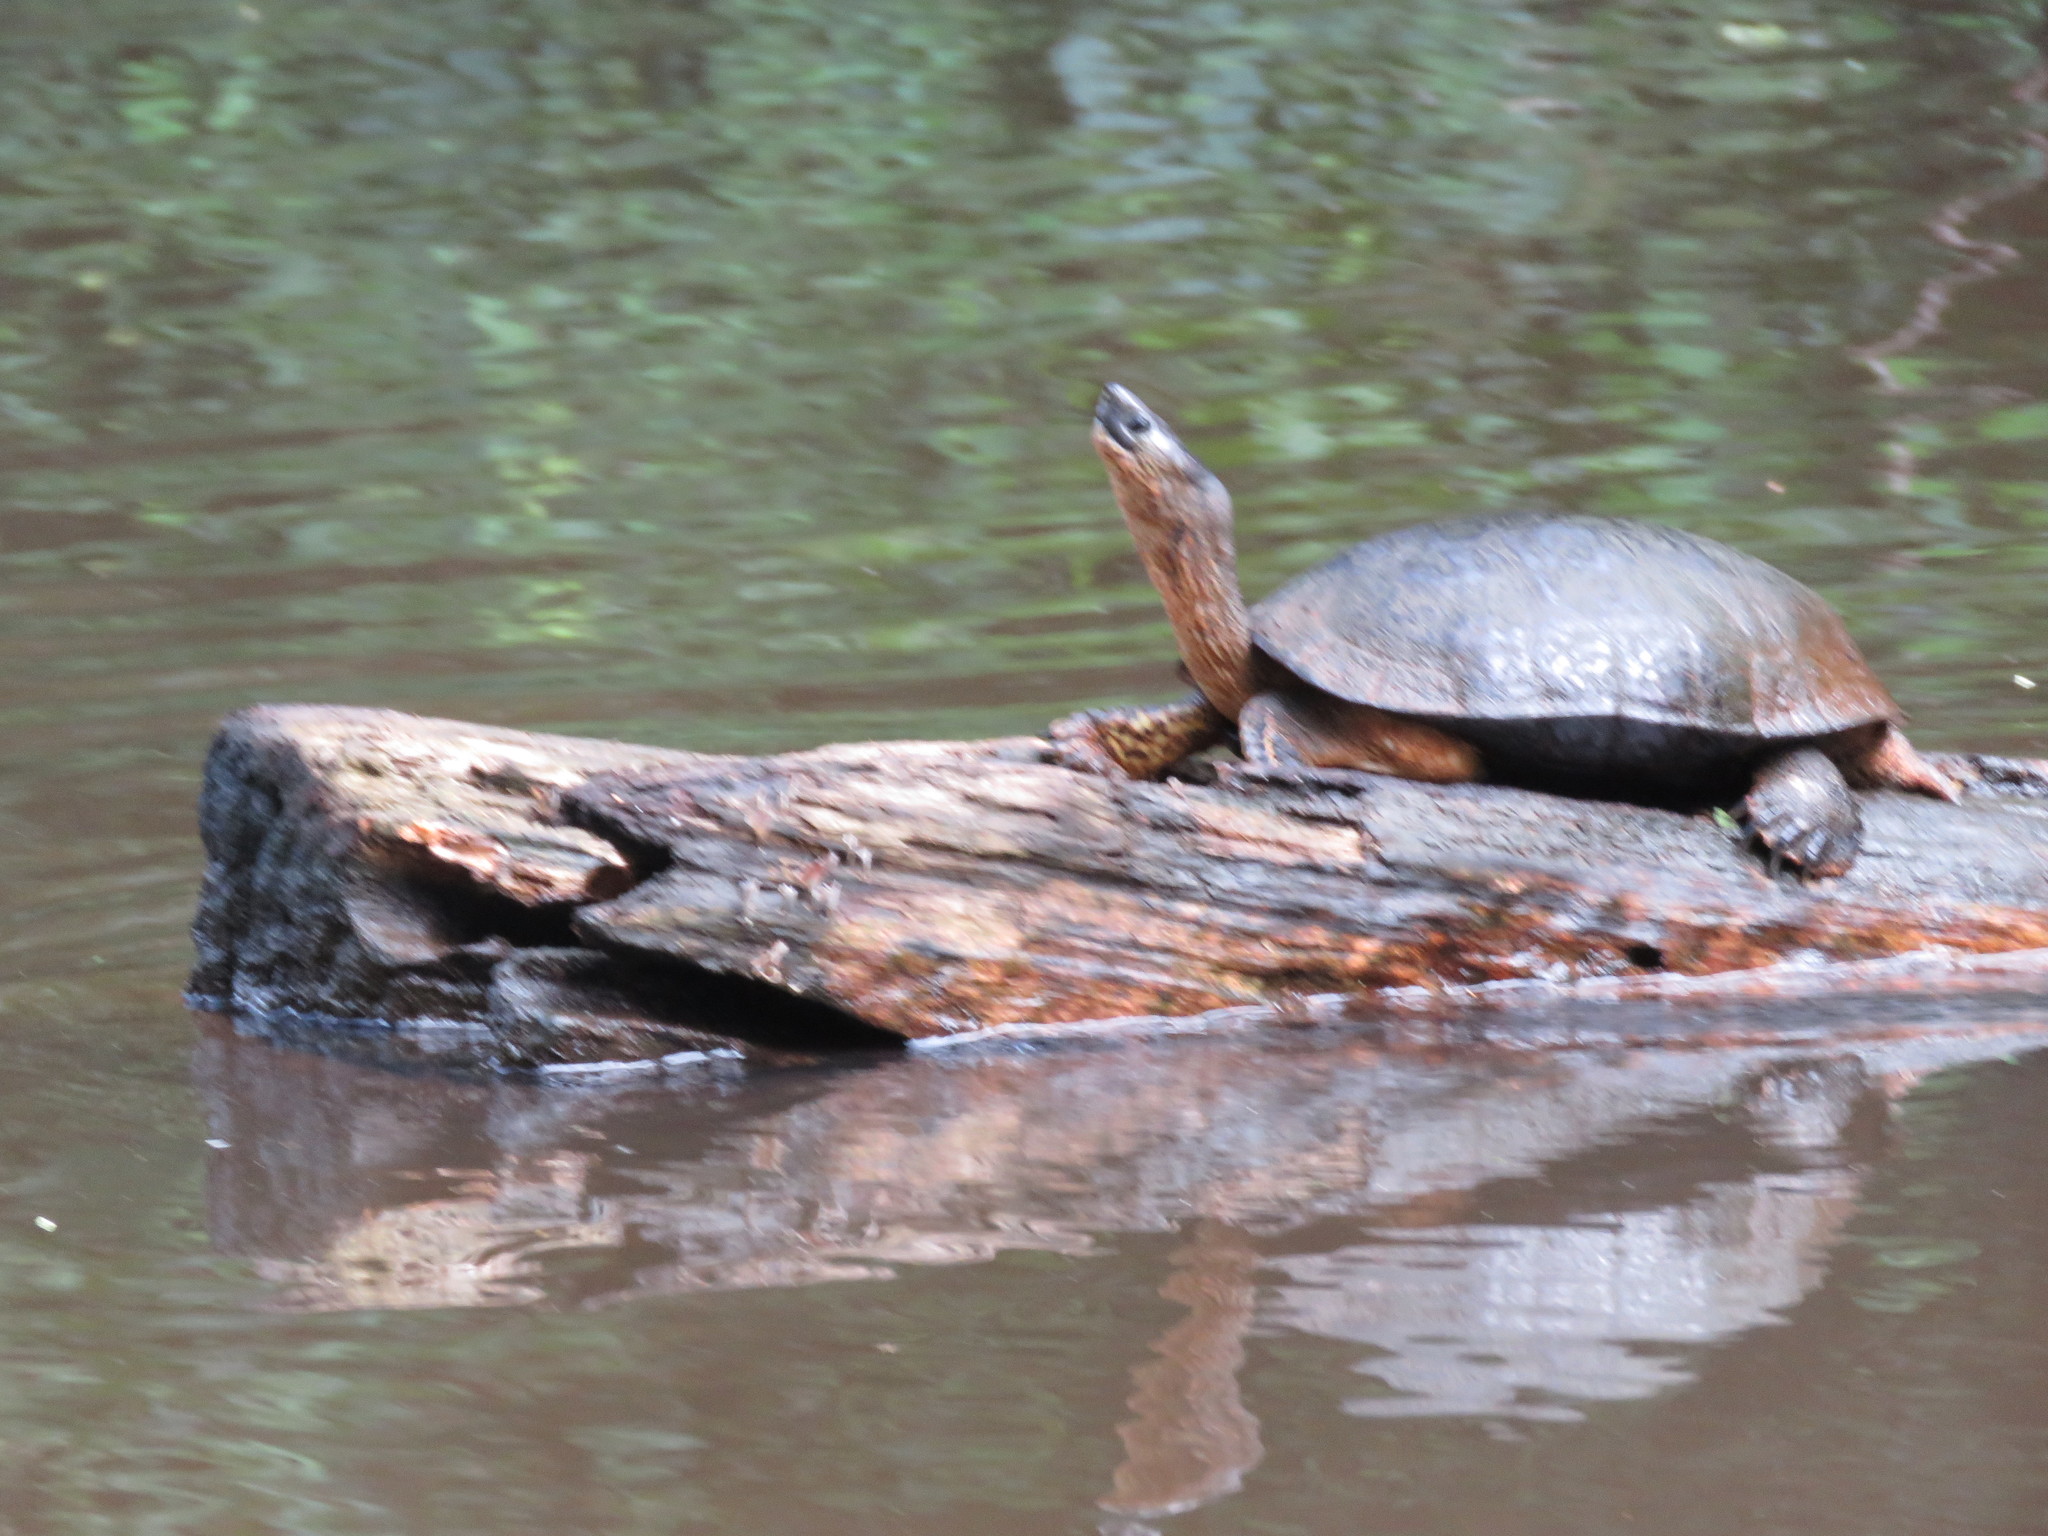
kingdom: Animalia
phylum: Chordata
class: Testudines
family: Geoemydidae
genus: Rhinoclemmys
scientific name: Rhinoclemmys funerea
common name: Black wood turtle
